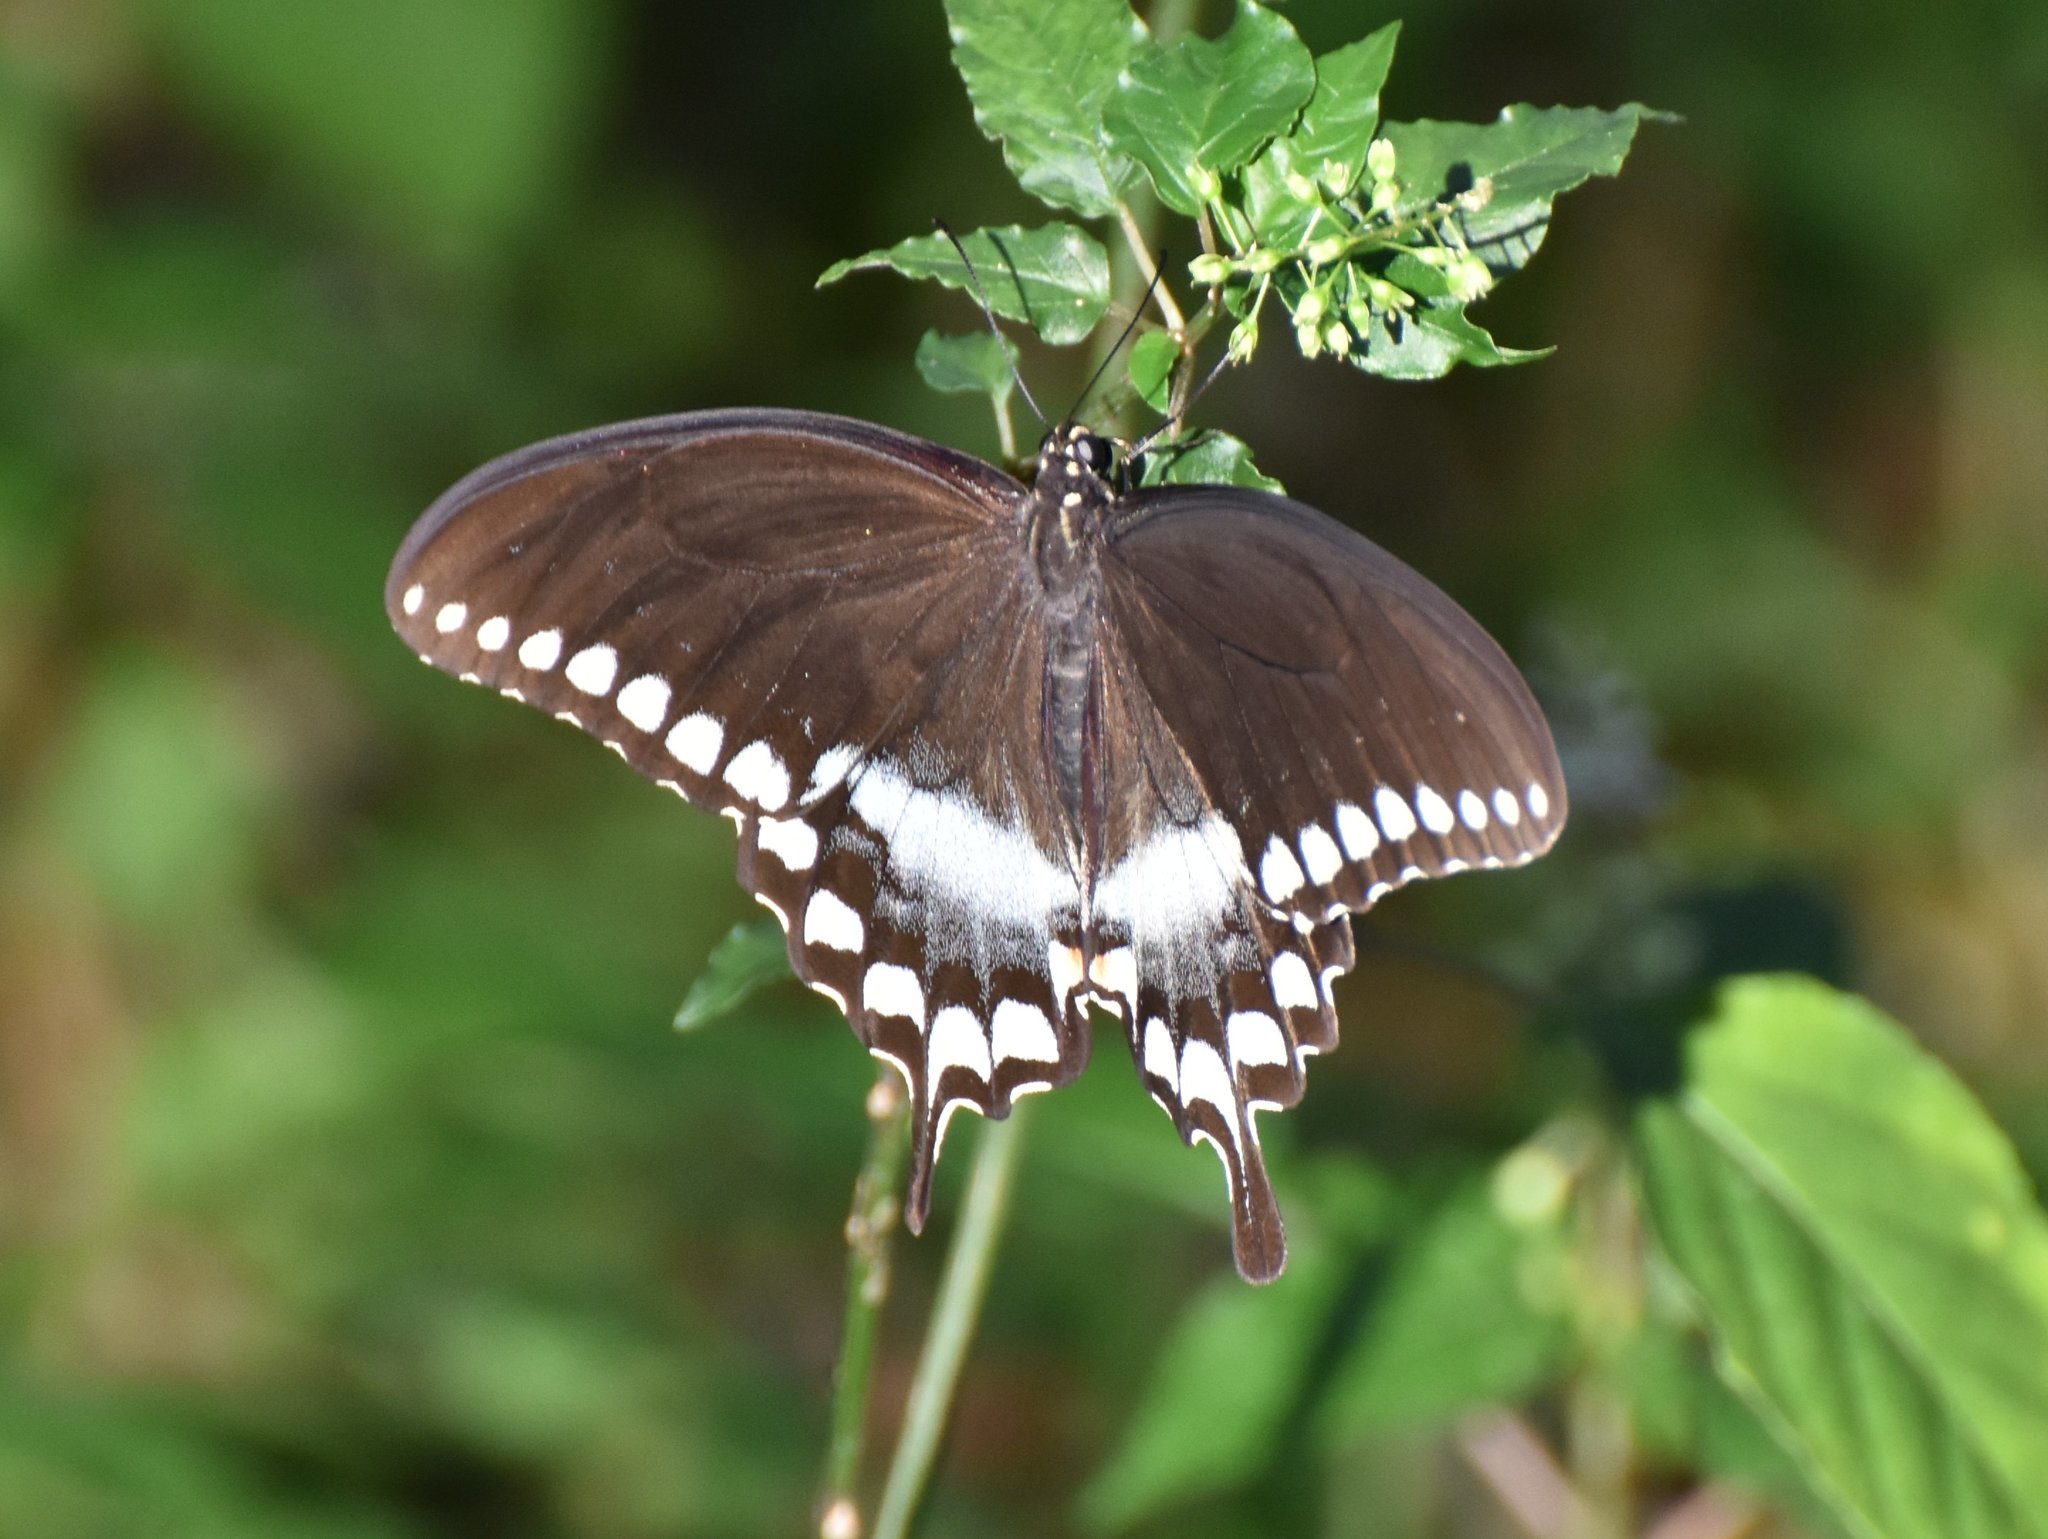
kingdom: Animalia
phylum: Arthropoda
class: Insecta
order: Lepidoptera
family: Papilionidae
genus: Papilio
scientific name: Papilio troilus
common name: Spicebush swallowtail
